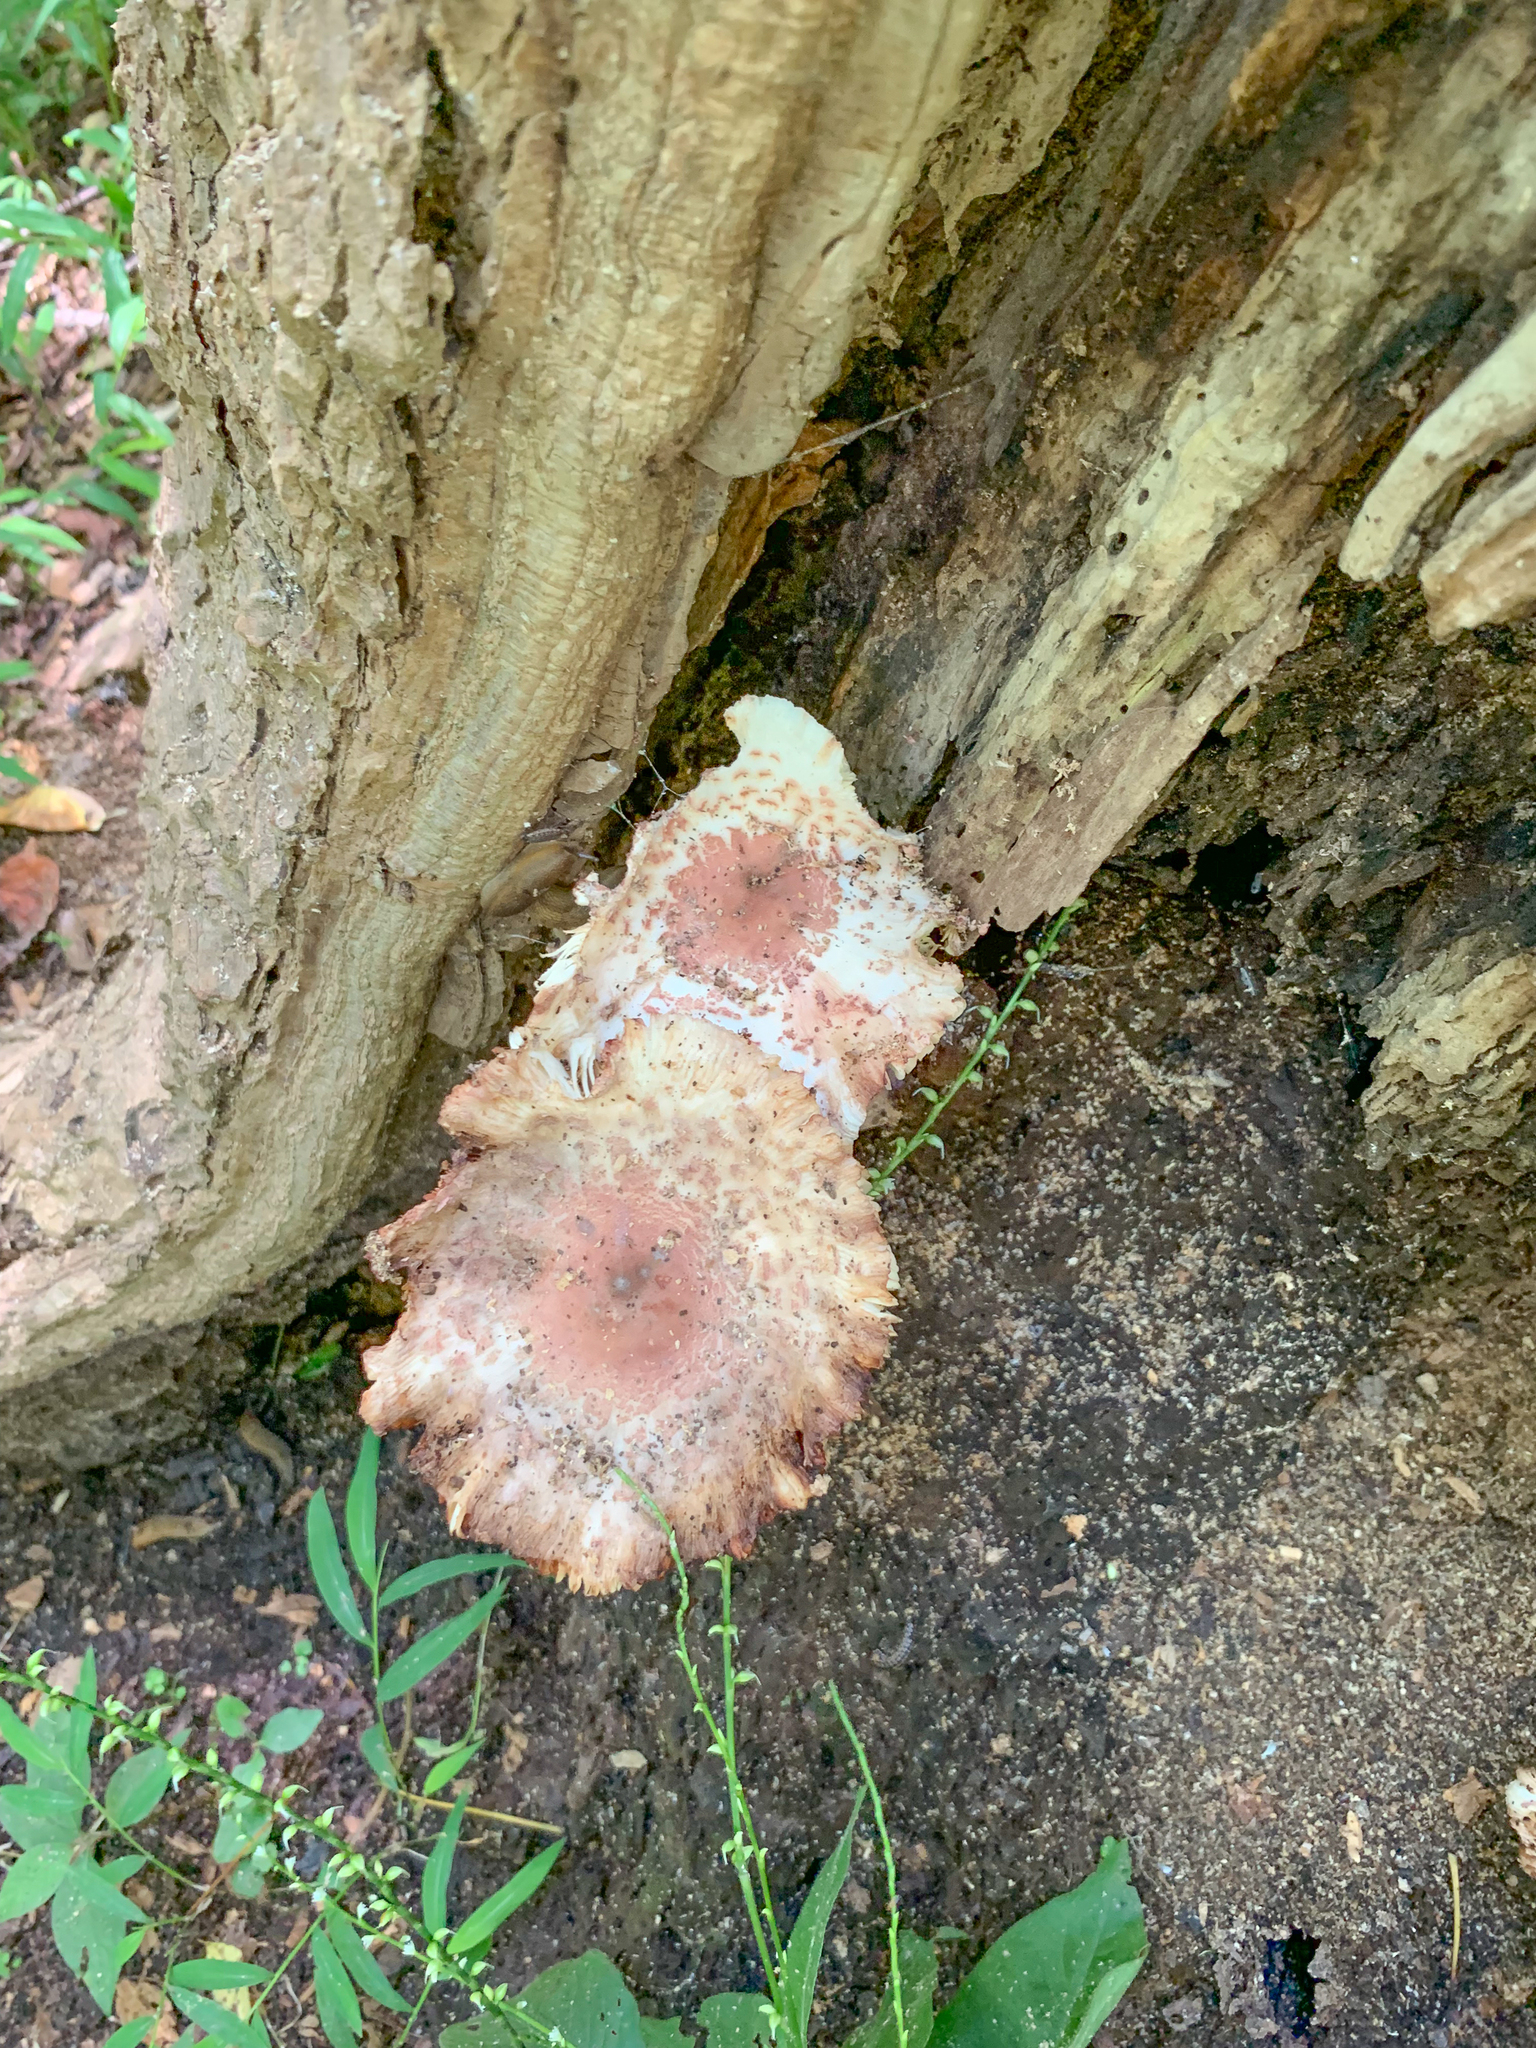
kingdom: Fungi
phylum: Basidiomycota
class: Agaricomycetes
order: Agaricales
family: Agaricaceae
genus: Leucoagaricus
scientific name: Leucoagaricus americanus
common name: Reddening lepiota
